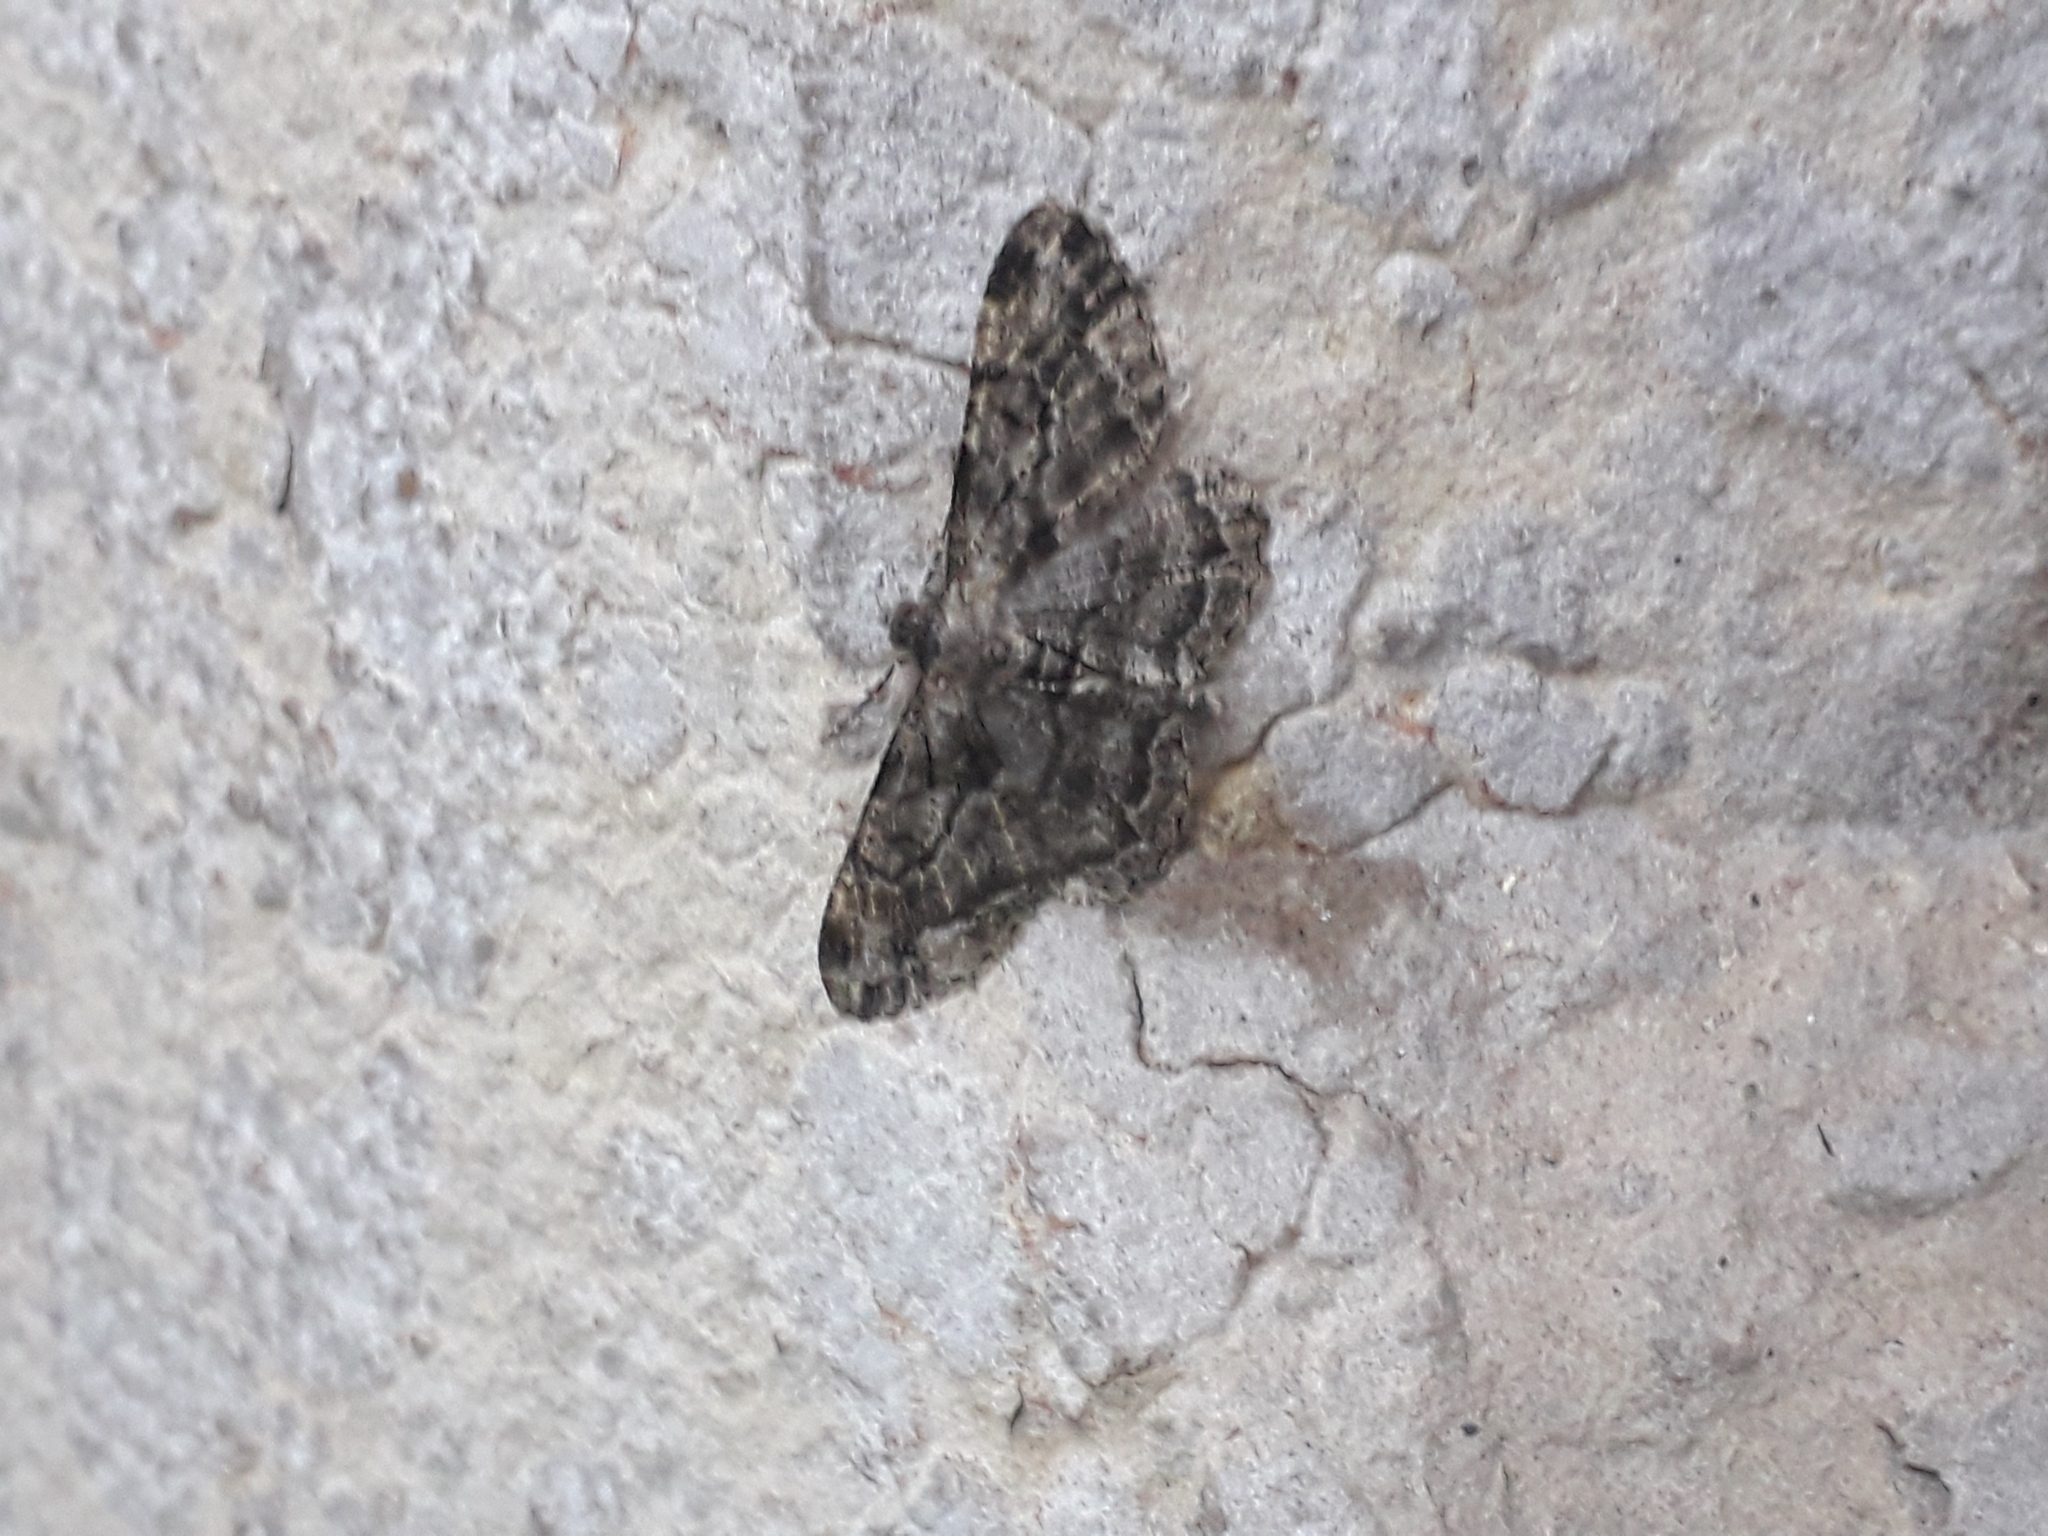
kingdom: Animalia
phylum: Arthropoda
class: Insecta
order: Lepidoptera
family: Geometridae
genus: Peribatodes
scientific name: Peribatodes rhomboidaria
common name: Willow beauty
